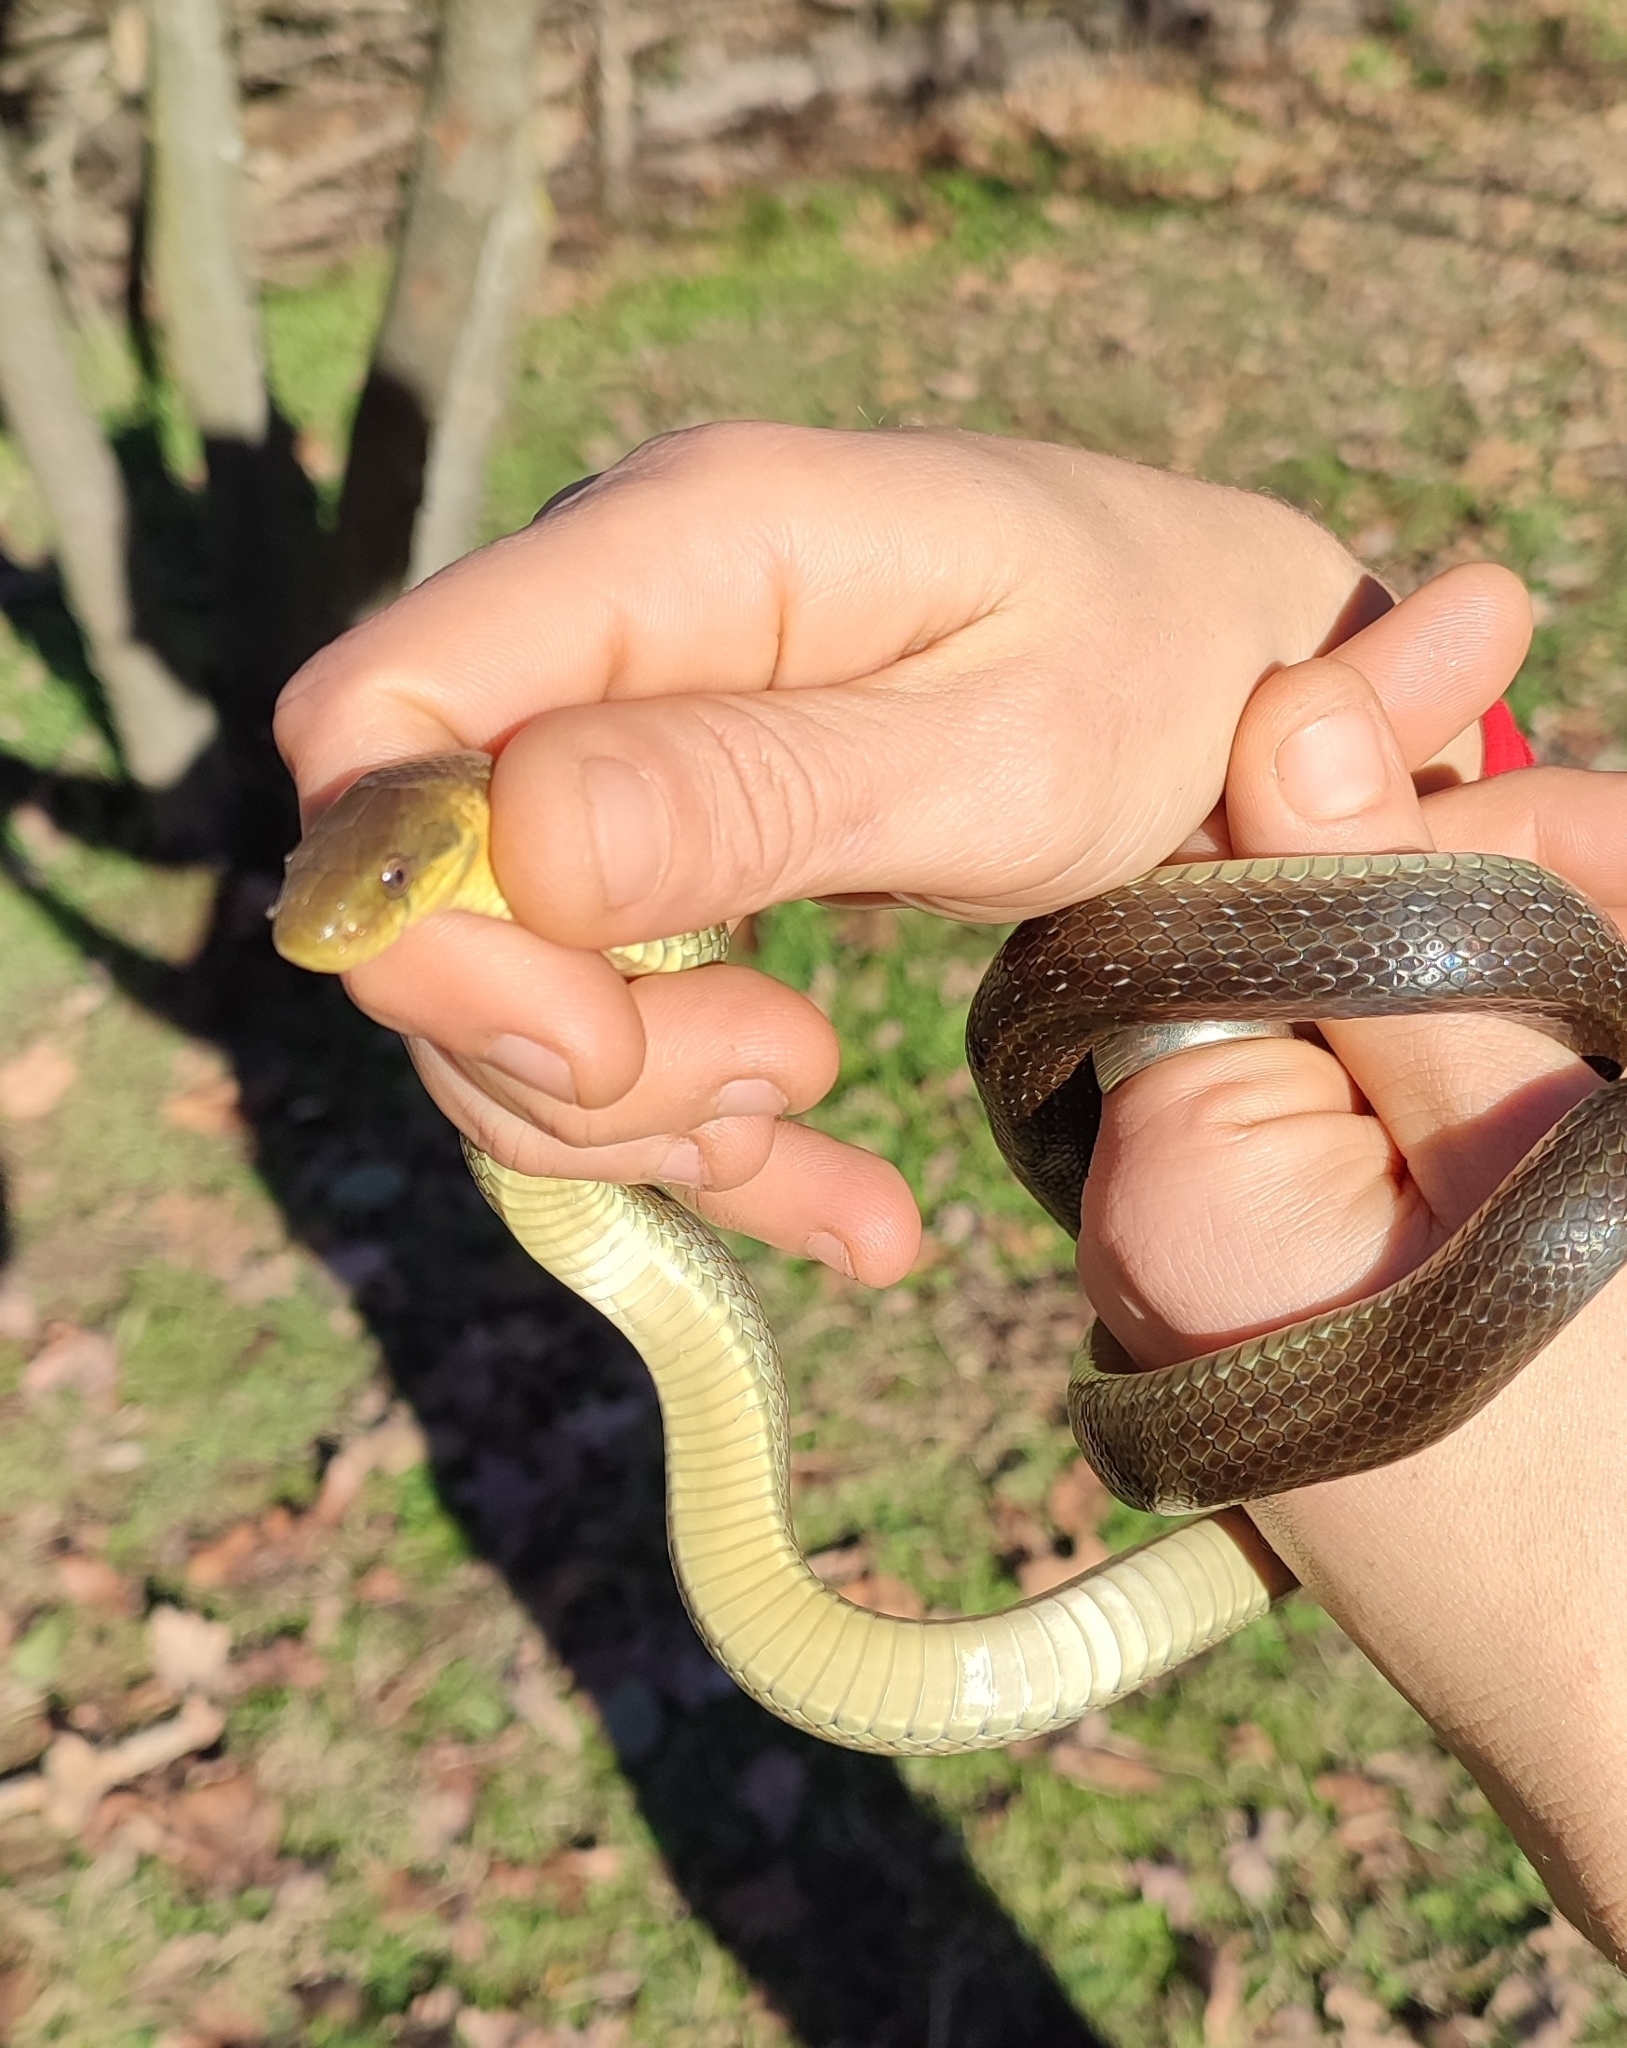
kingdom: Animalia
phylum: Chordata
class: Squamata
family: Colubridae
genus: Zamenis
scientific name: Zamenis longissimus
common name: Aesculapean snake
